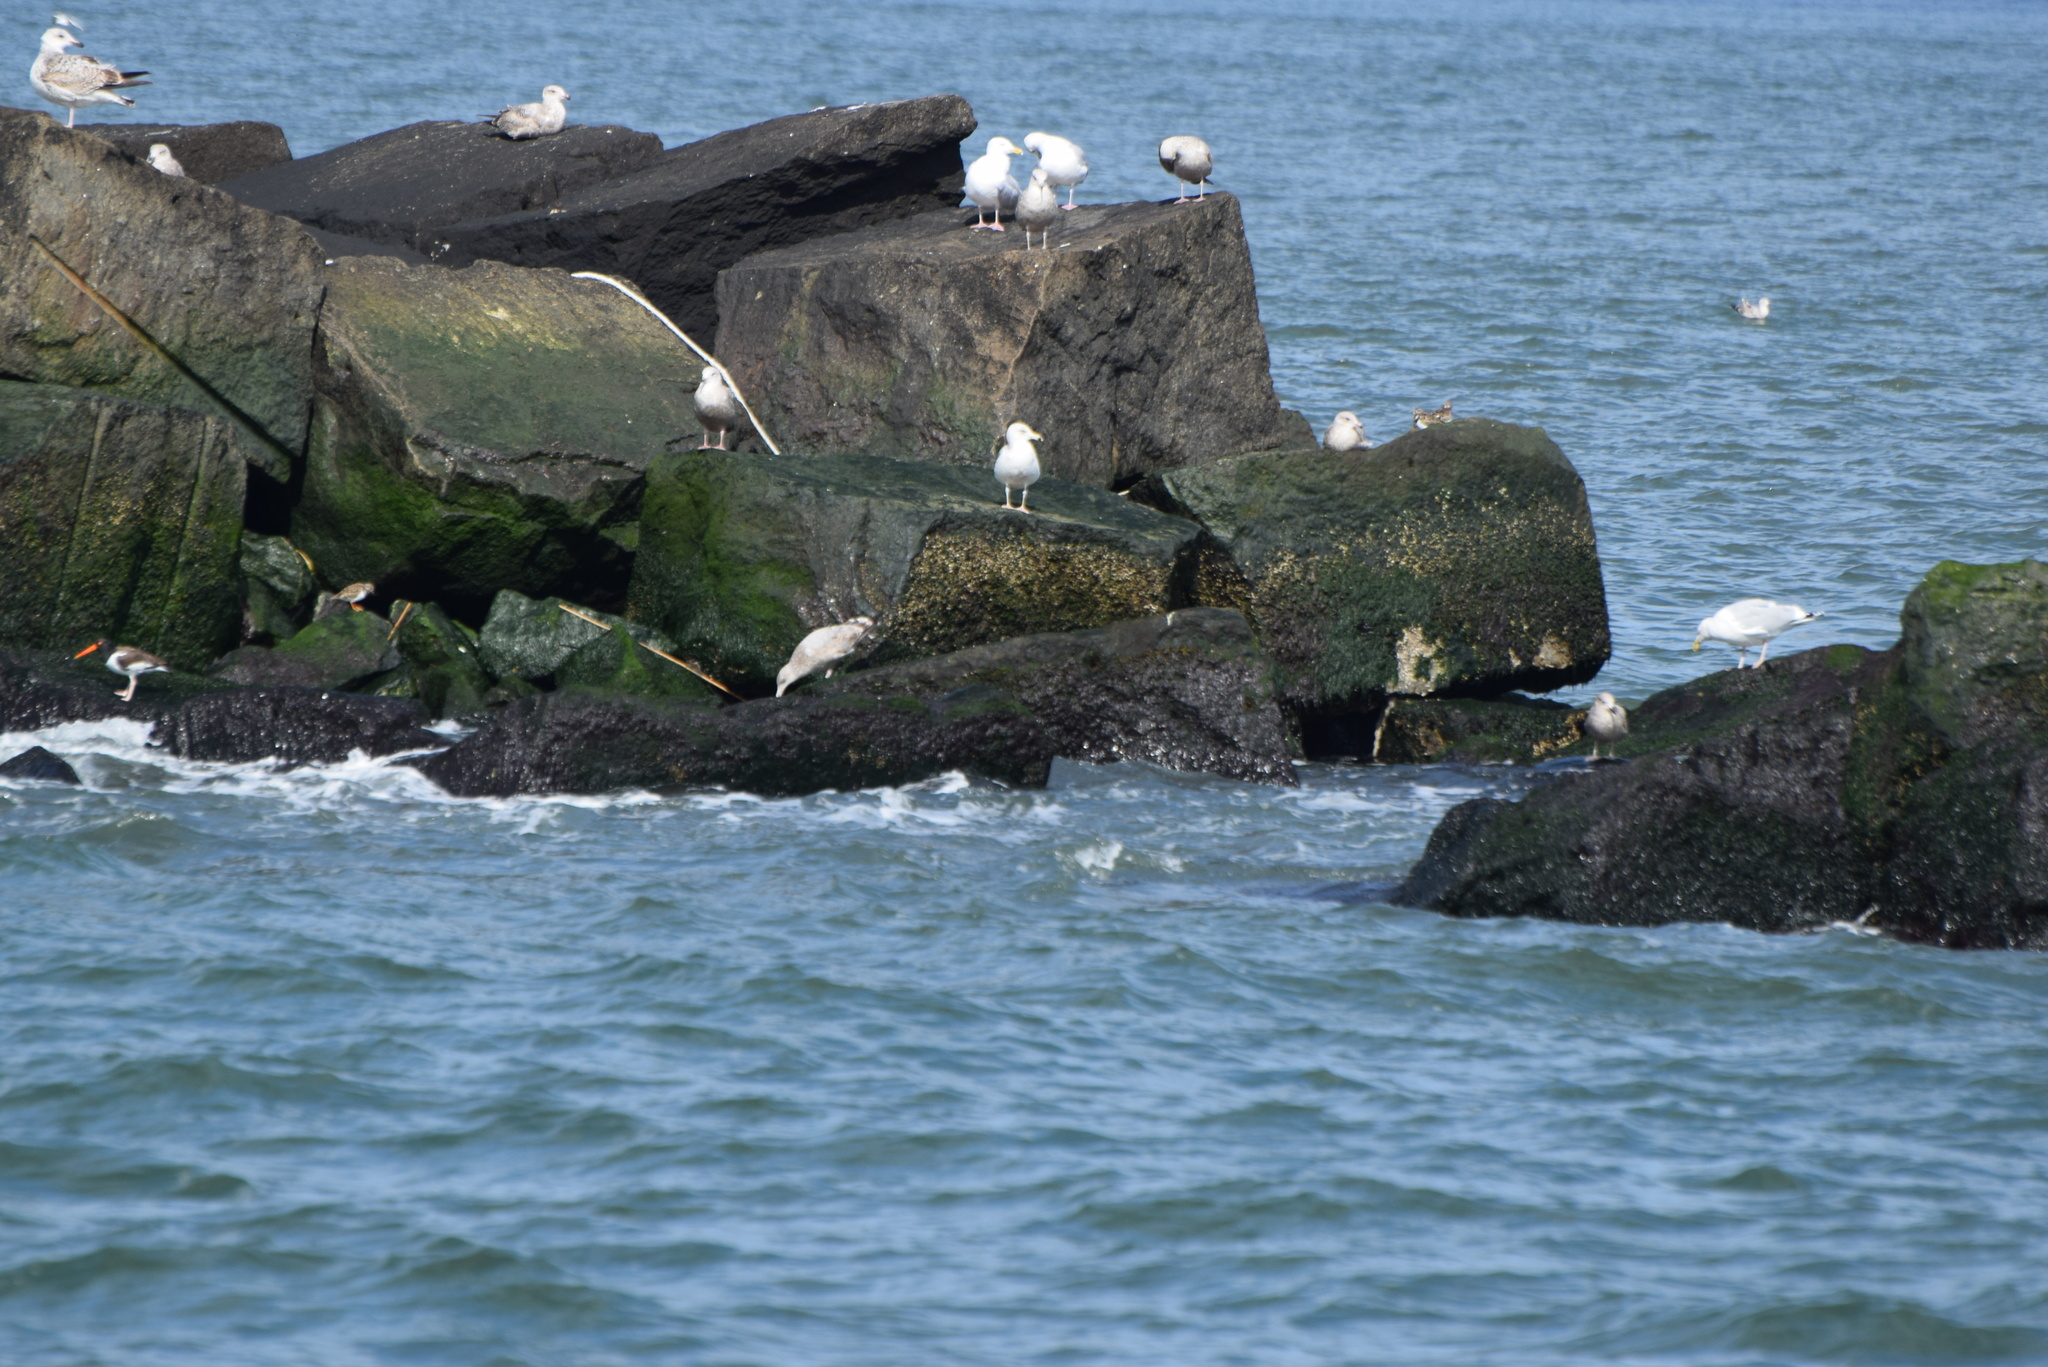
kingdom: Animalia
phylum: Chordata
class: Aves
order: Charadriiformes
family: Haematopodidae
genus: Haematopus
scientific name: Haematopus palliatus
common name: American oystercatcher
